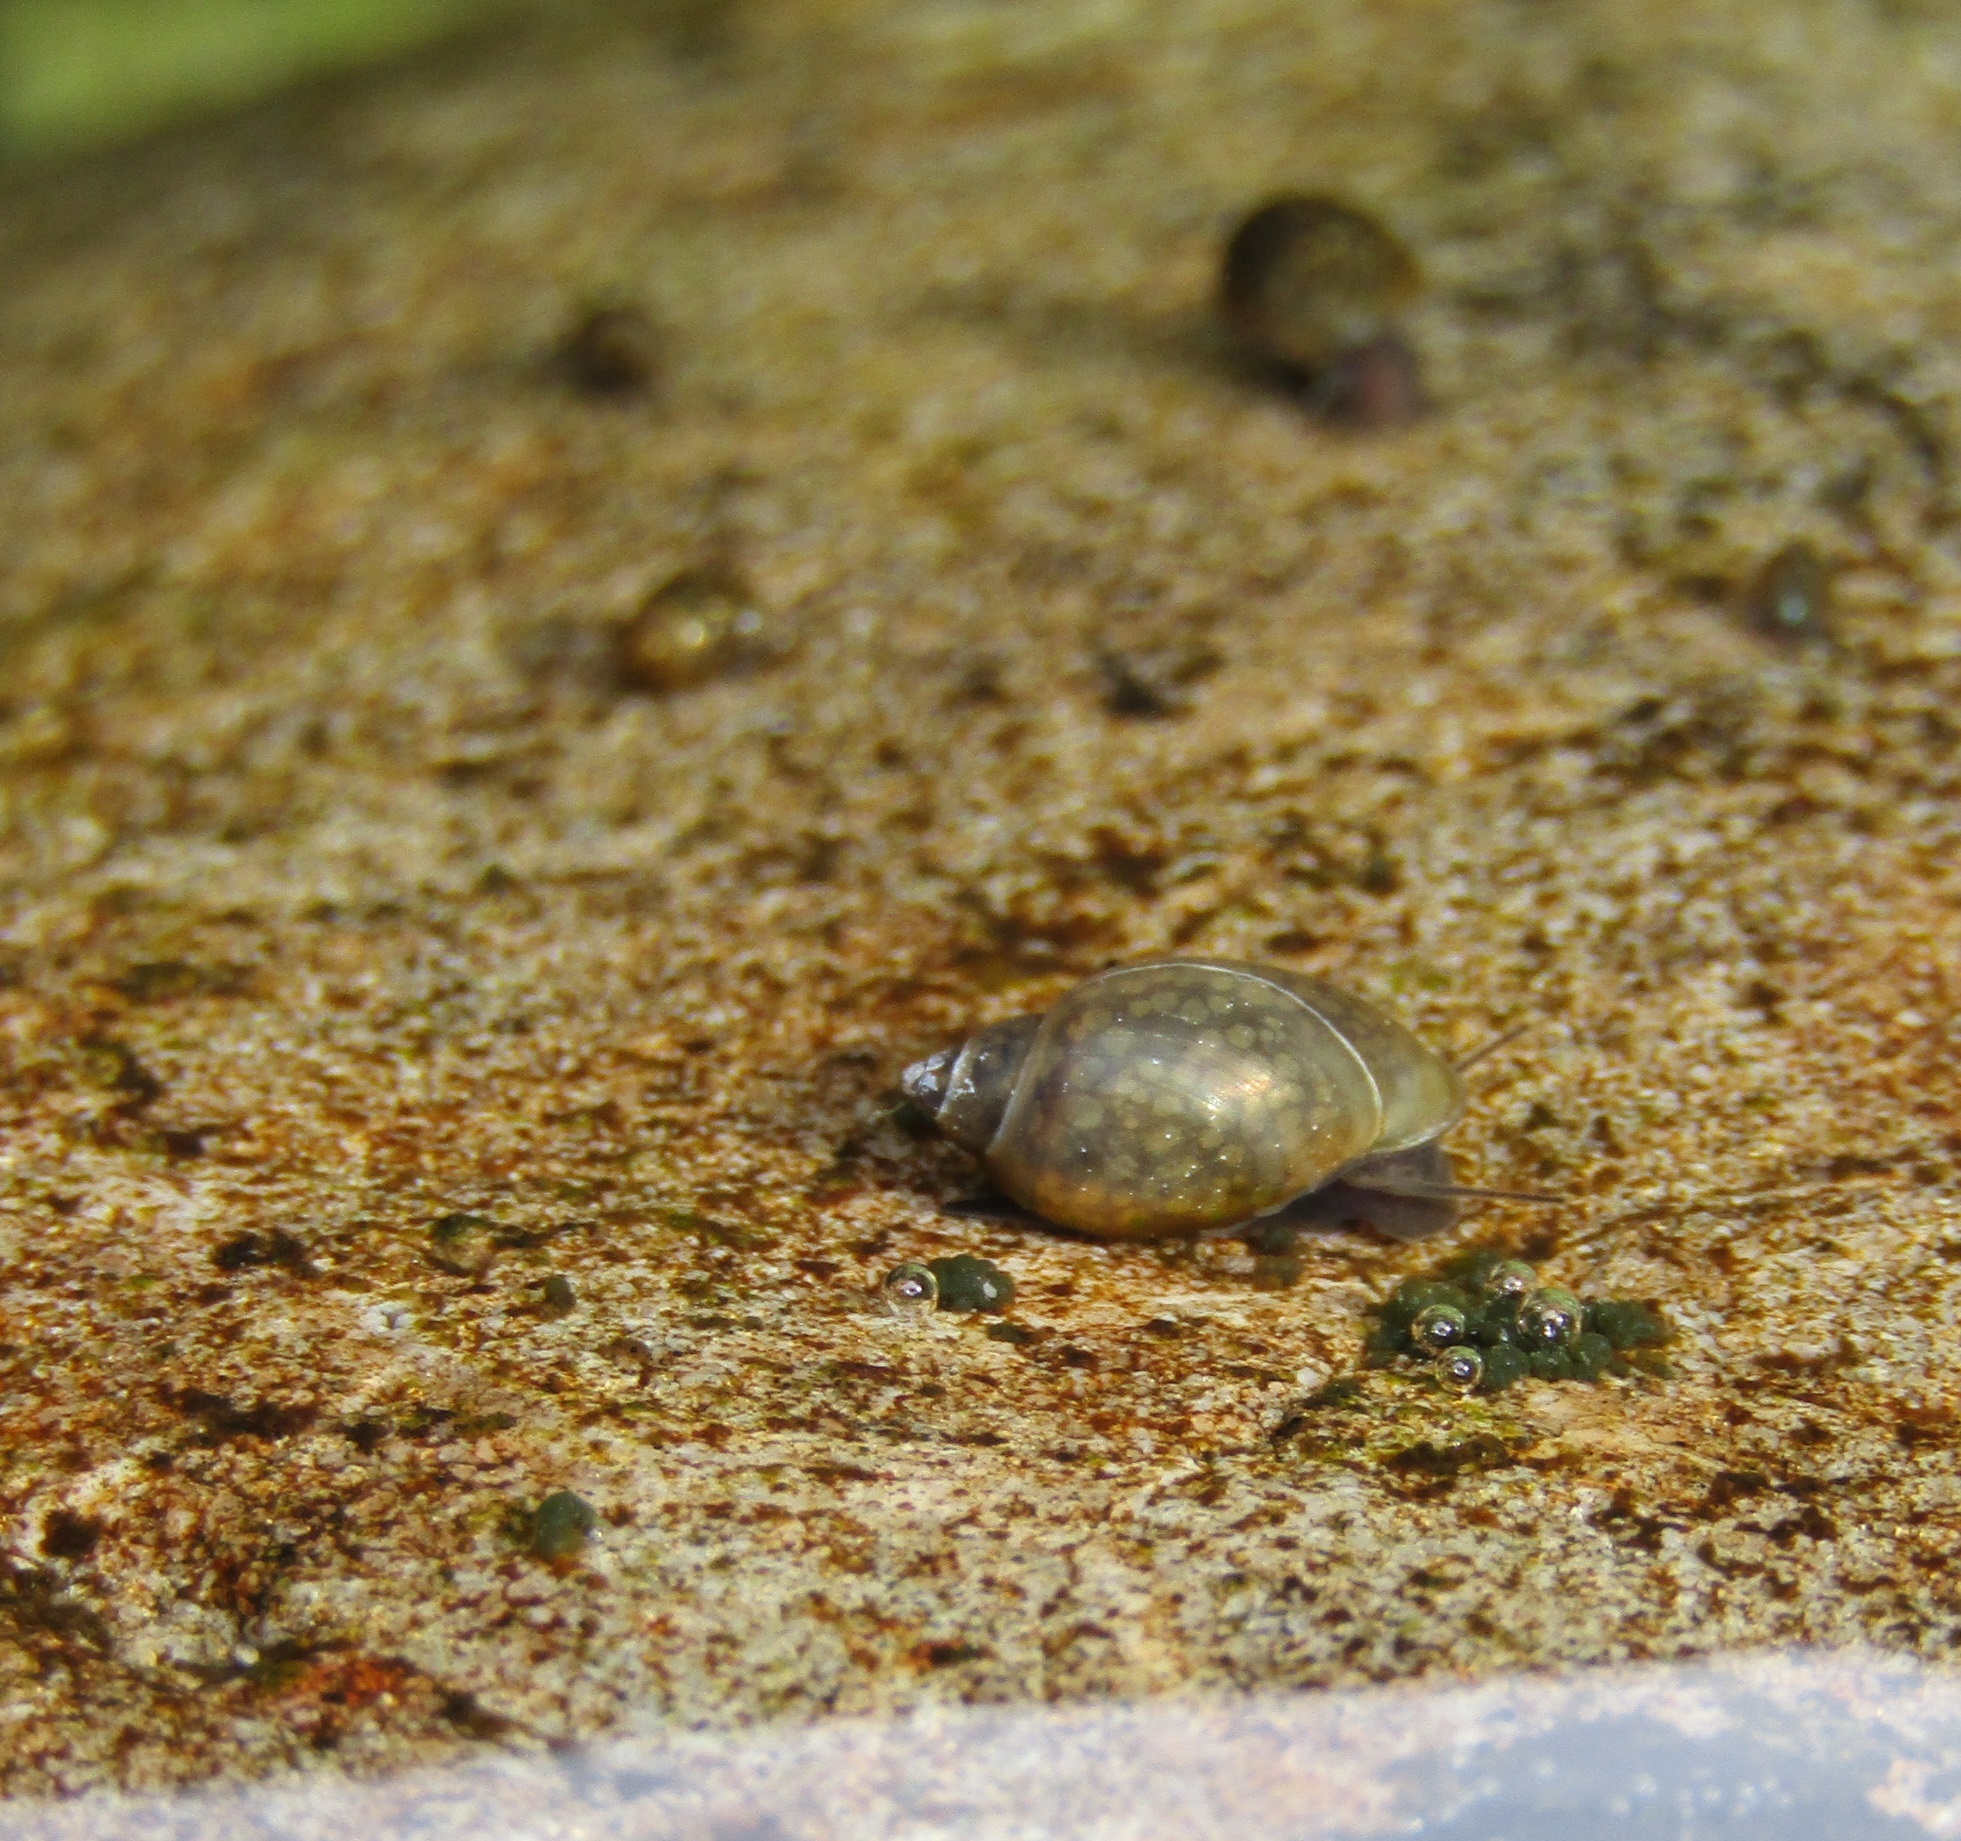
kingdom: Animalia
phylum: Mollusca
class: Gastropoda
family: Physidae
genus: Physella
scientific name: Physella acuta
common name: European physa
